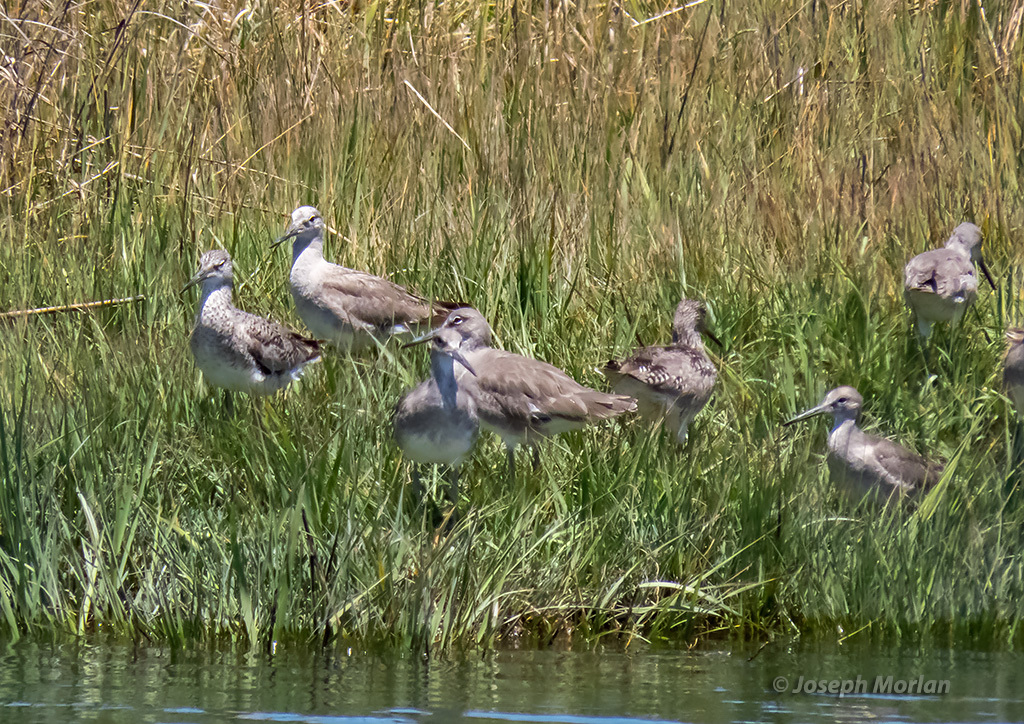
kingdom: Animalia
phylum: Chordata
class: Aves
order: Charadriiformes
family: Scolopacidae
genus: Tringa
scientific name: Tringa semipalmata
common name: Willet
